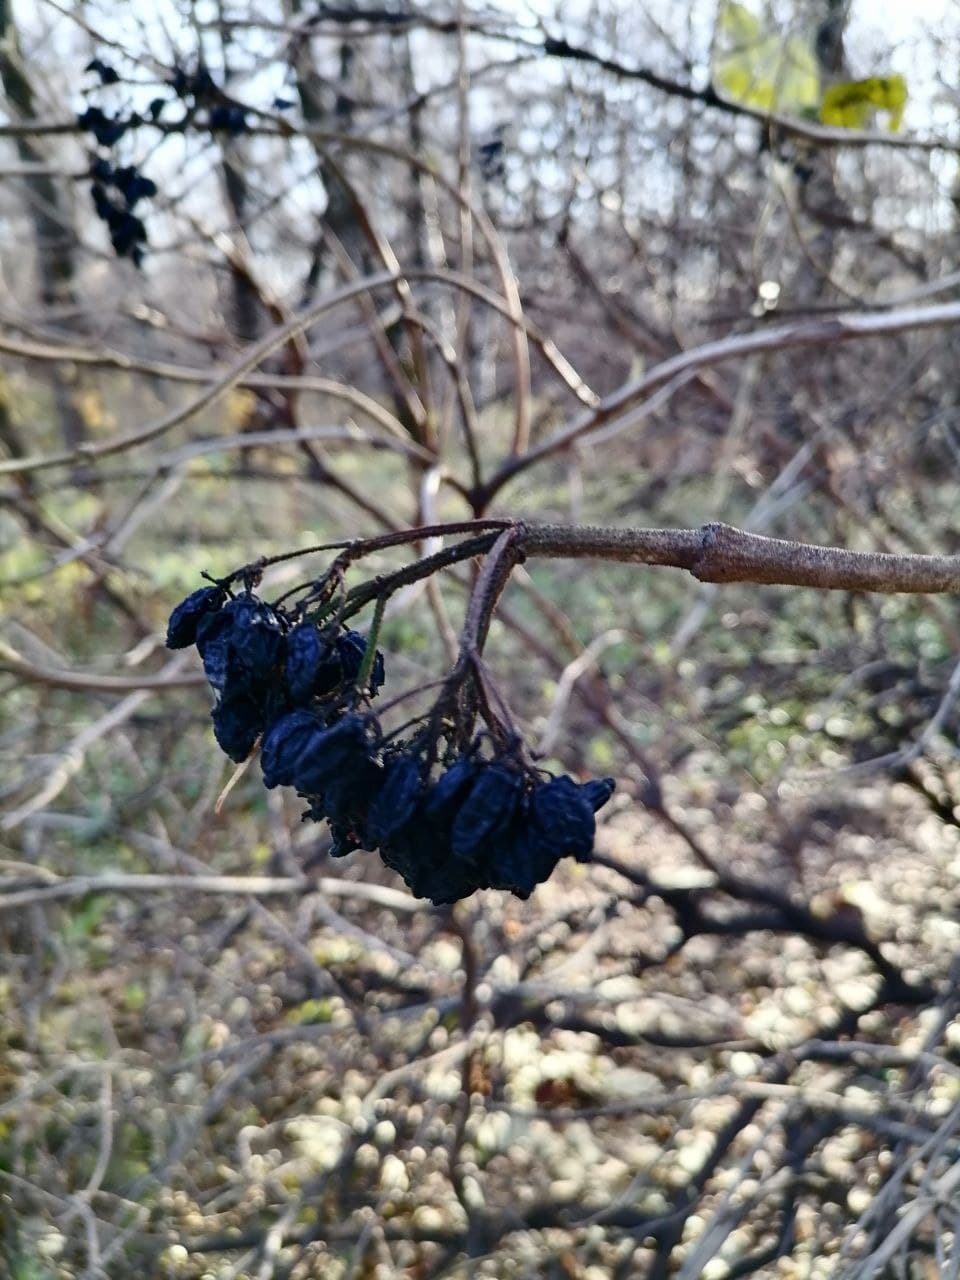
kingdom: Plantae
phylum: Tracheophyta
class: Magnoliopsida
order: Dipsacales
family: Viburnaceae
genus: Viburnum
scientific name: Viburnum lantana
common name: Wayfaring tree
